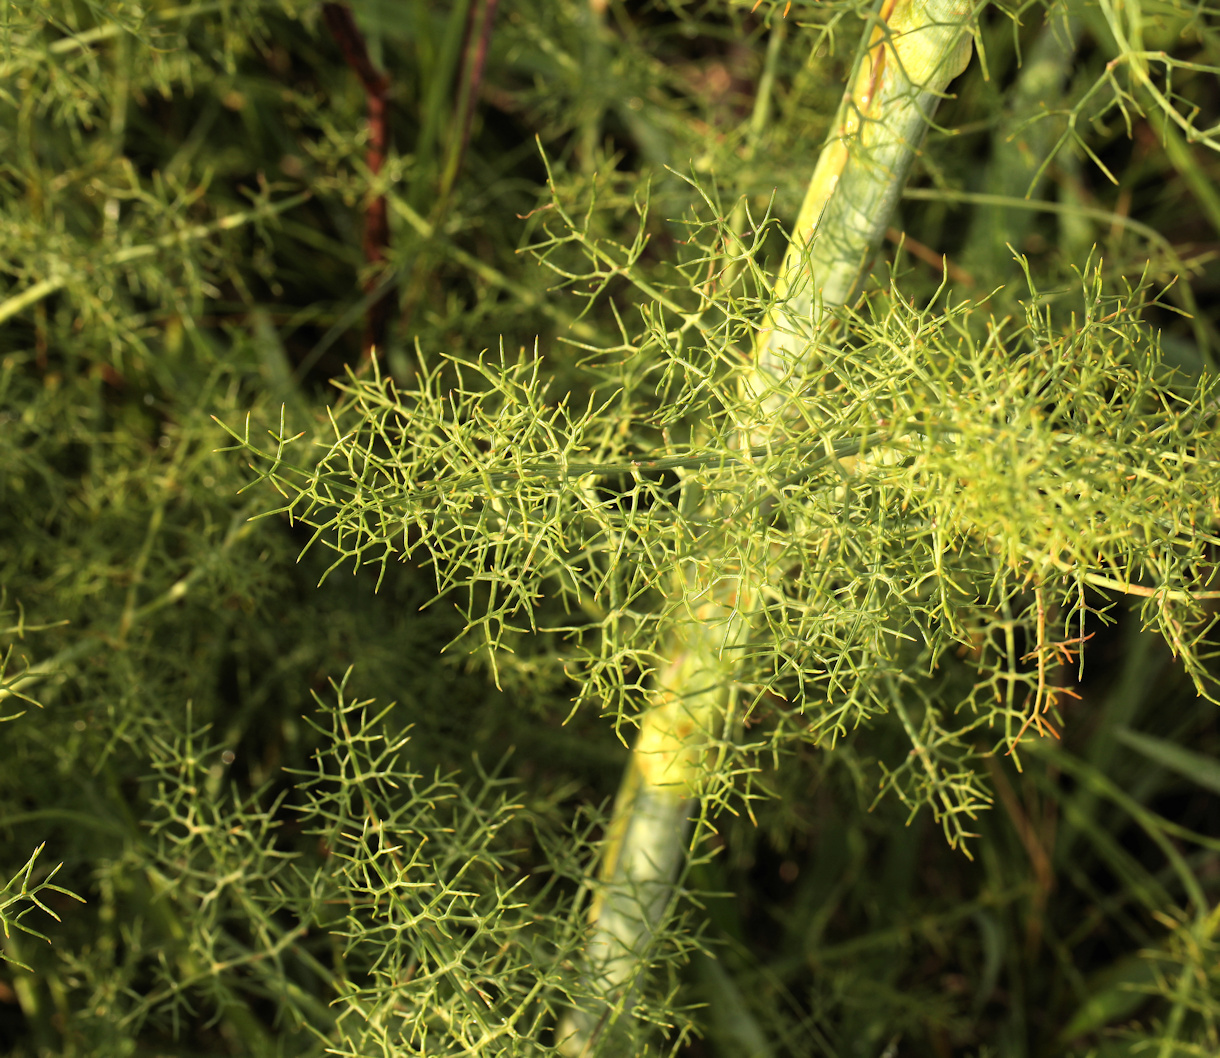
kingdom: Plantae
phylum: Tracheophyta
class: Magnoliopsida
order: Apiales
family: Apiaceae
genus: Foeniculum
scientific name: Foeniculum vulgare
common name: Fennel
